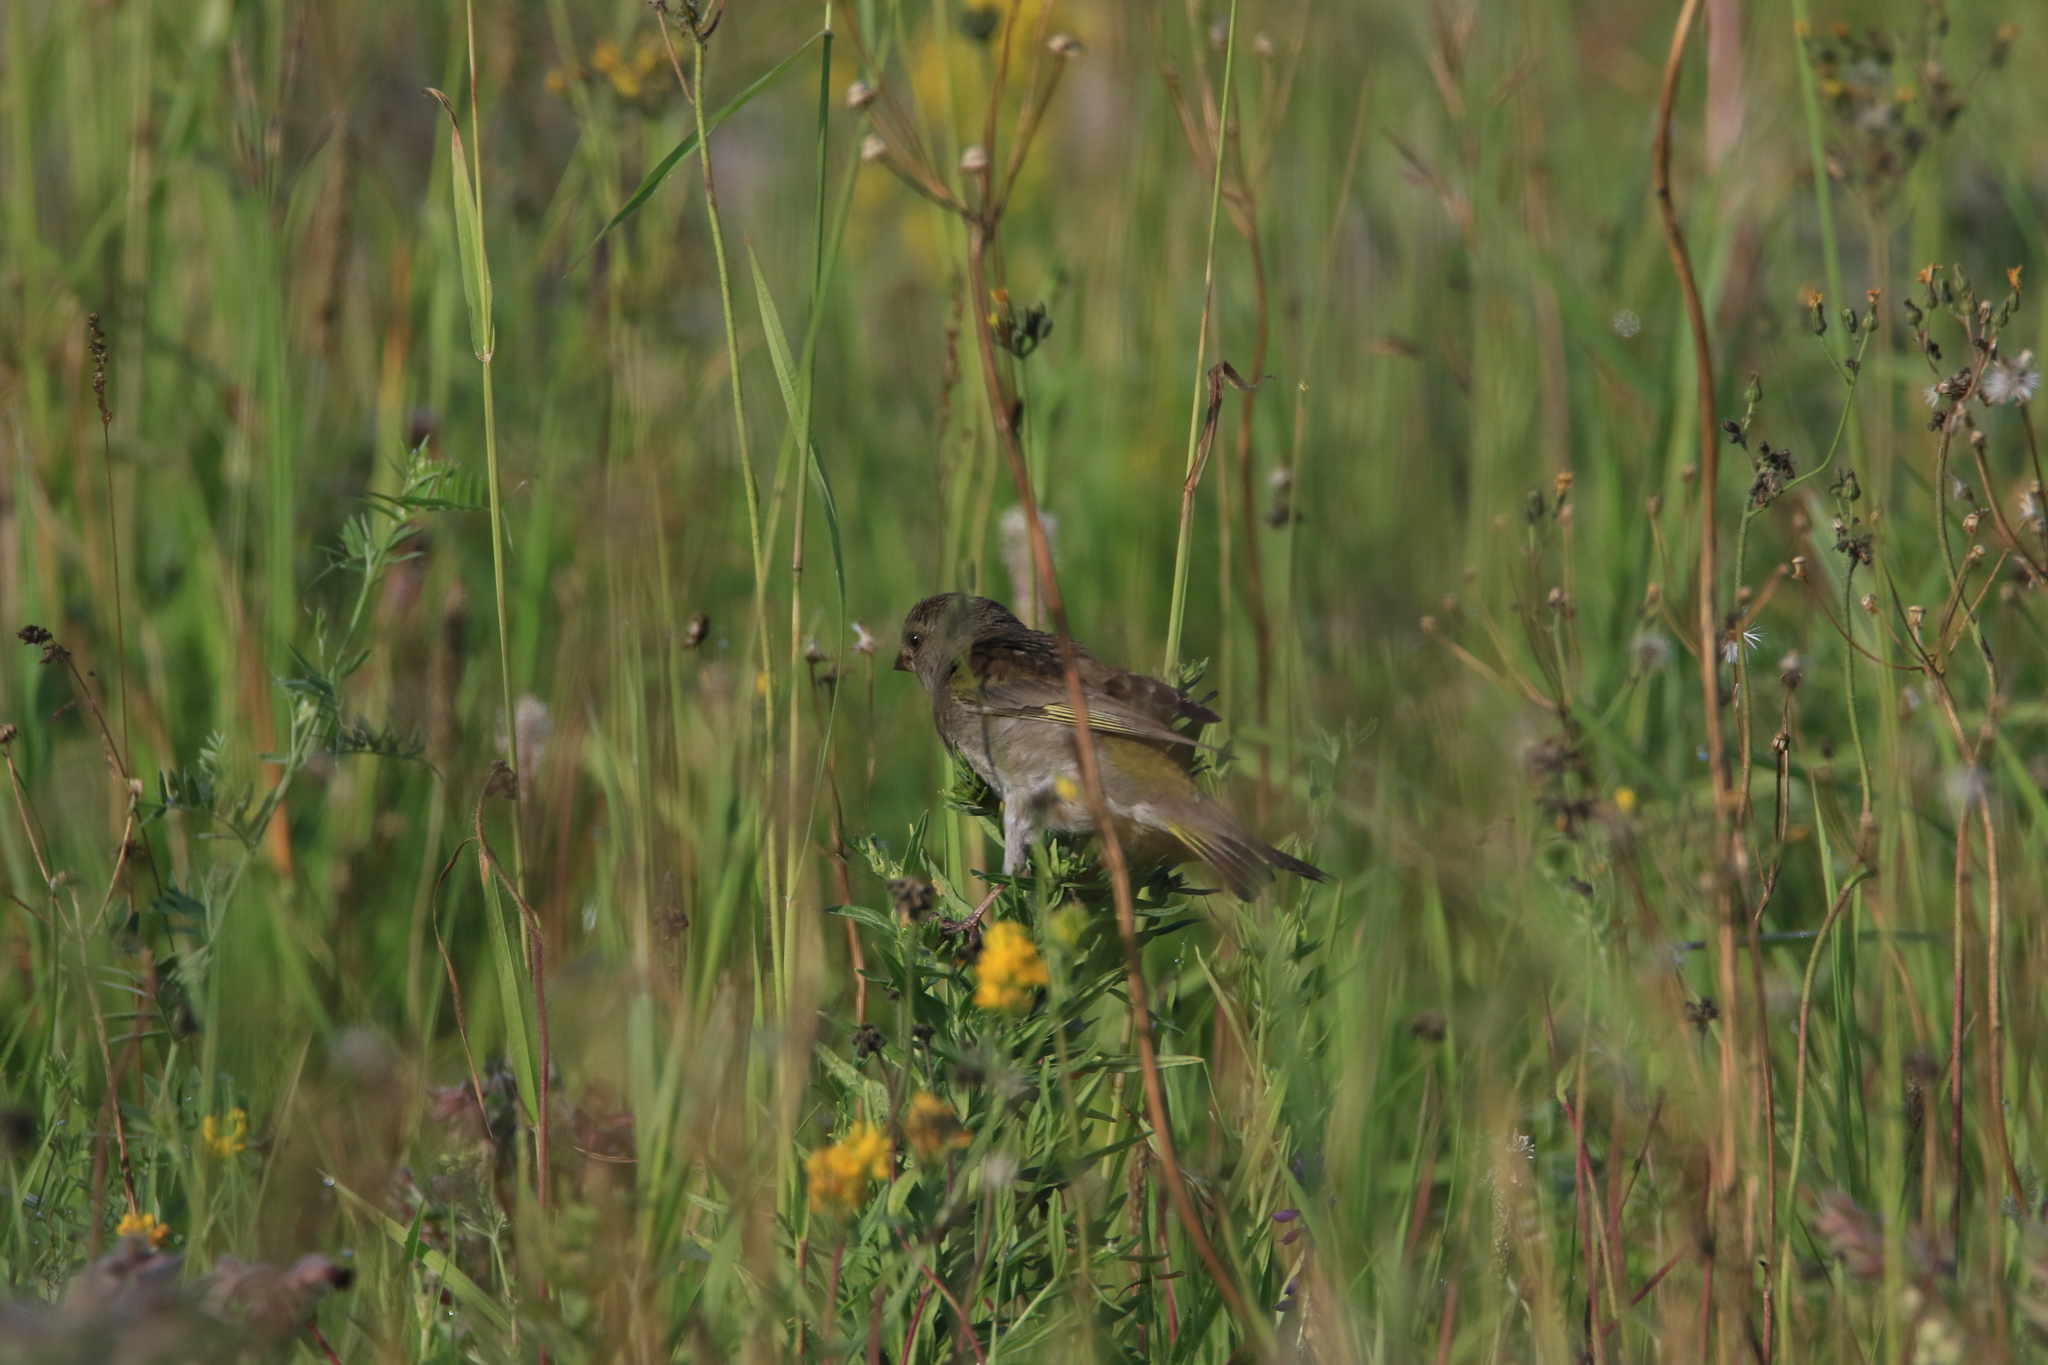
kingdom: Plantae
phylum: Tracheophyta
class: Liliopsida
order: Poales
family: Poaceae
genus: Chloris
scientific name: Chloris chloris
